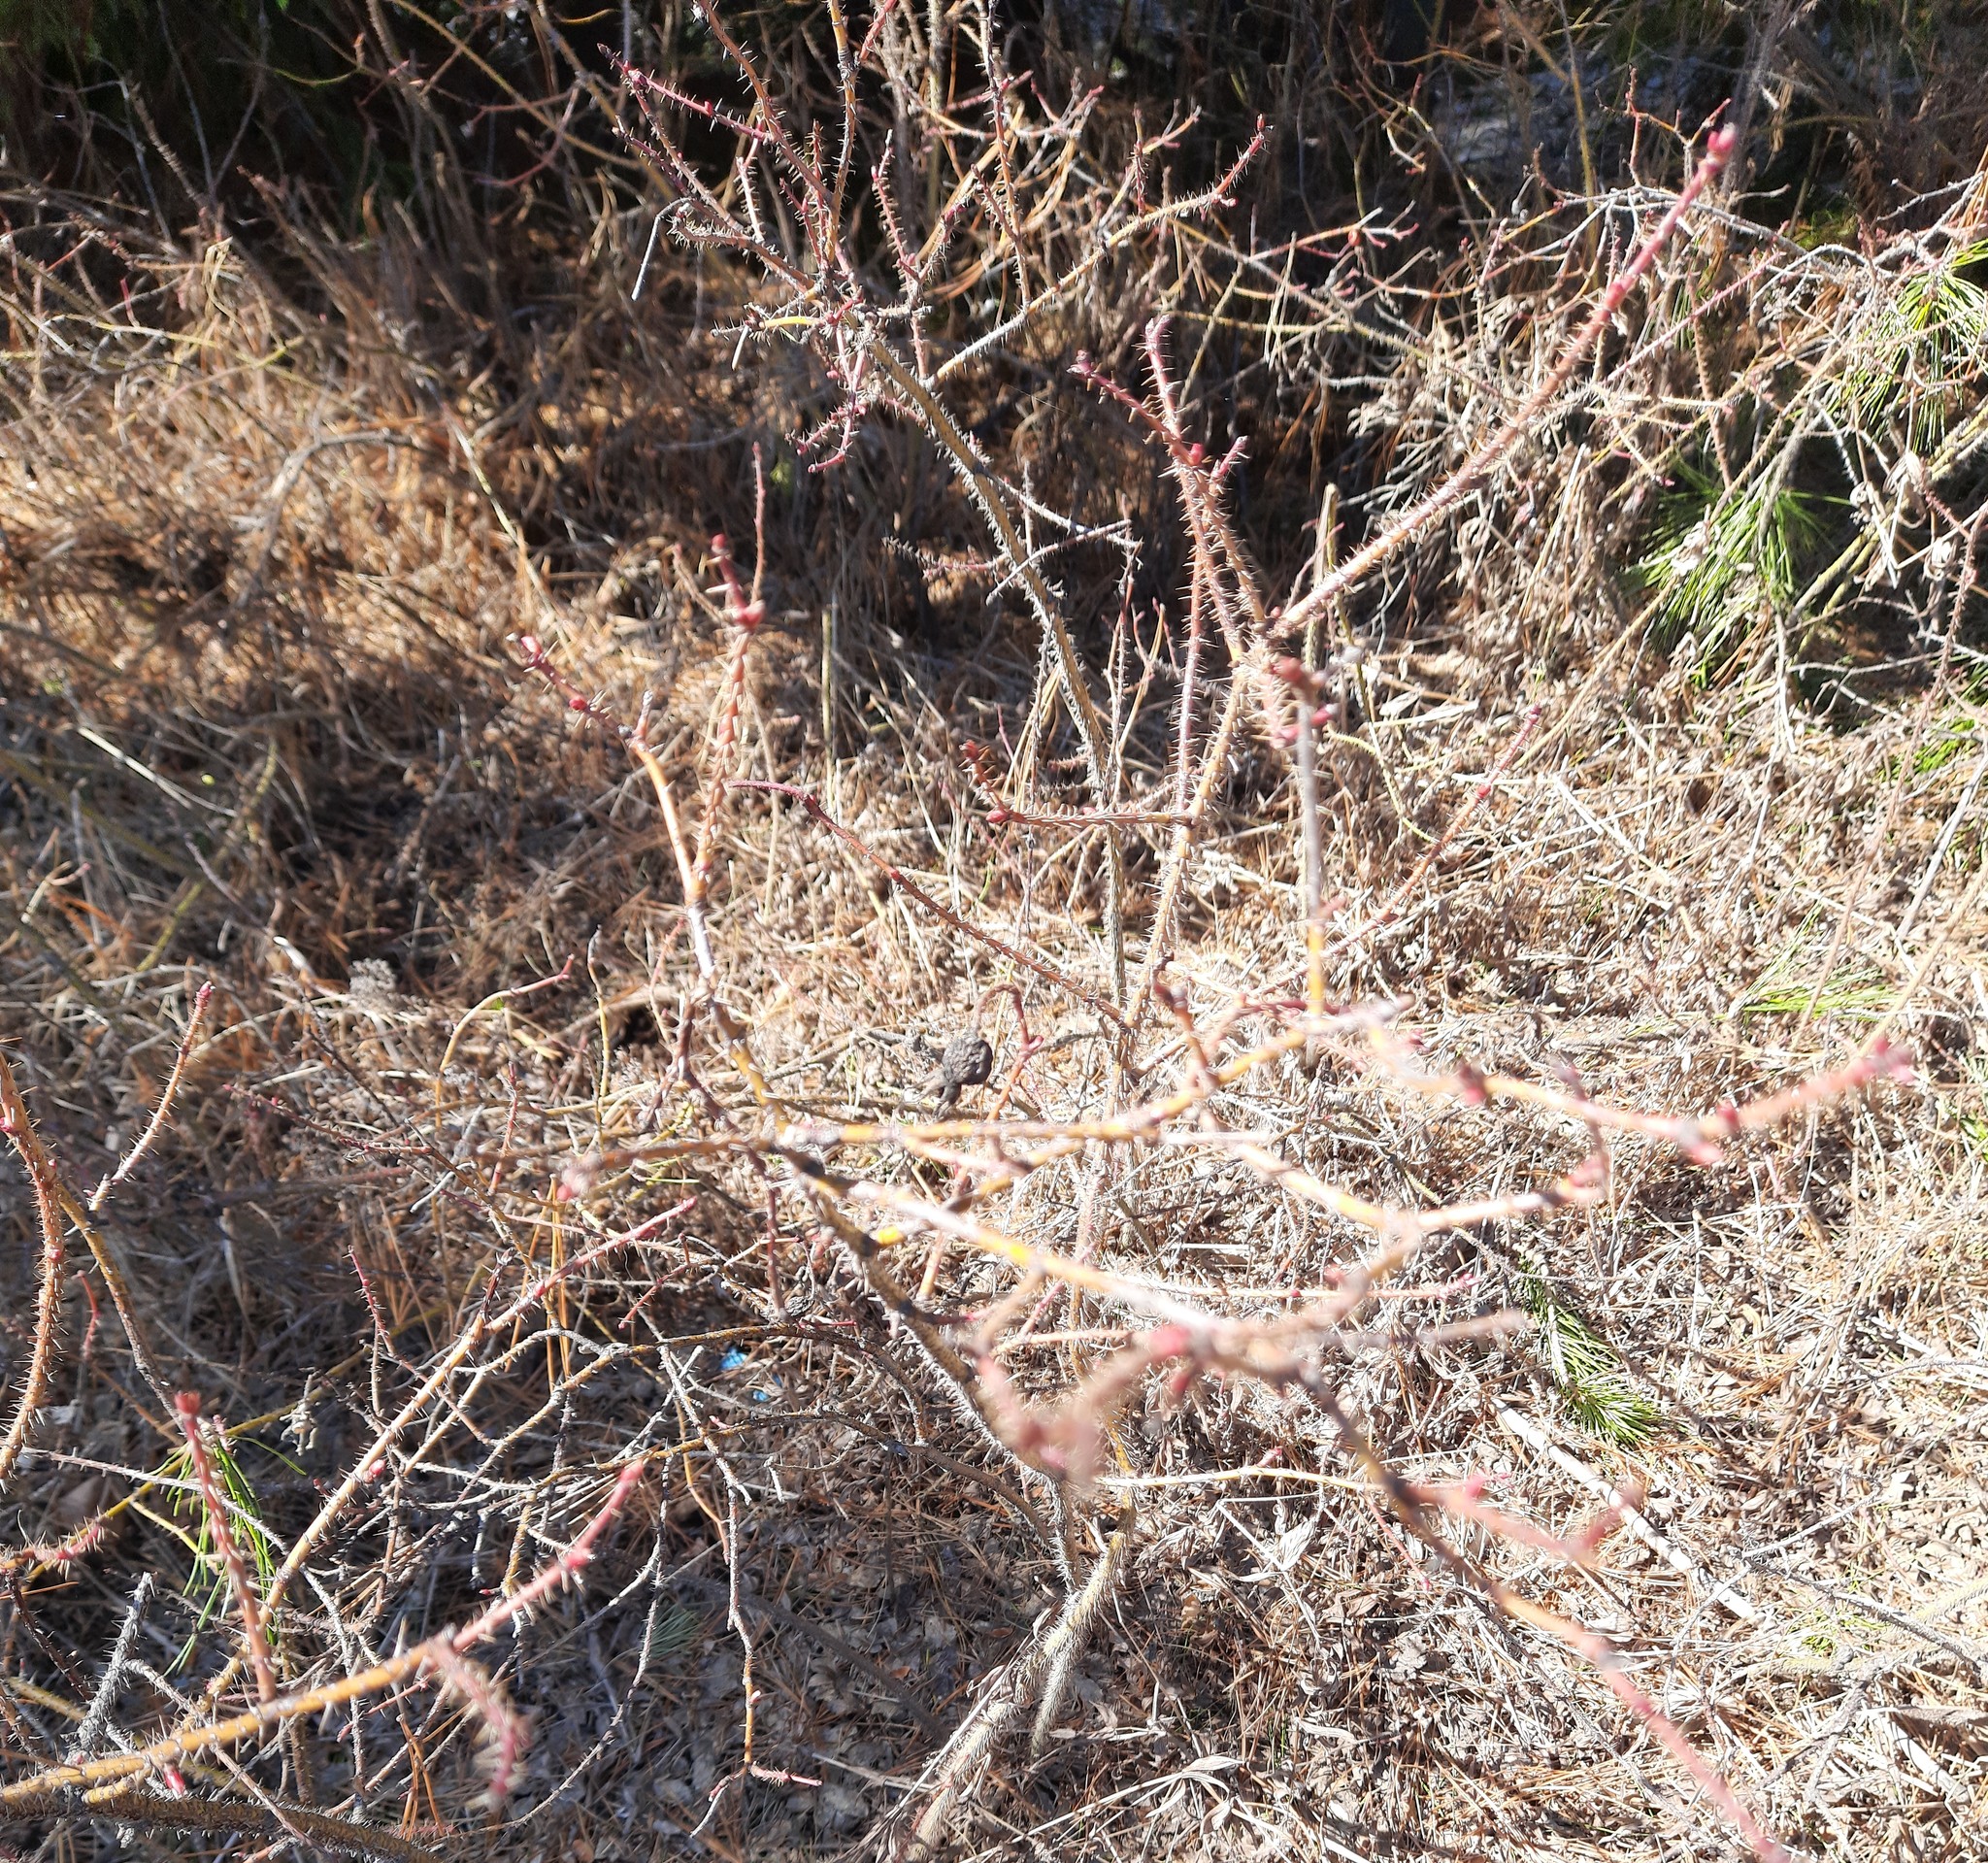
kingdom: Plantae
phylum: Tracheophyta
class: Magnoliopsida
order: Rosales
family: Rosaceae
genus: Rosa
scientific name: Rosa acicularis
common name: Prickly rose
